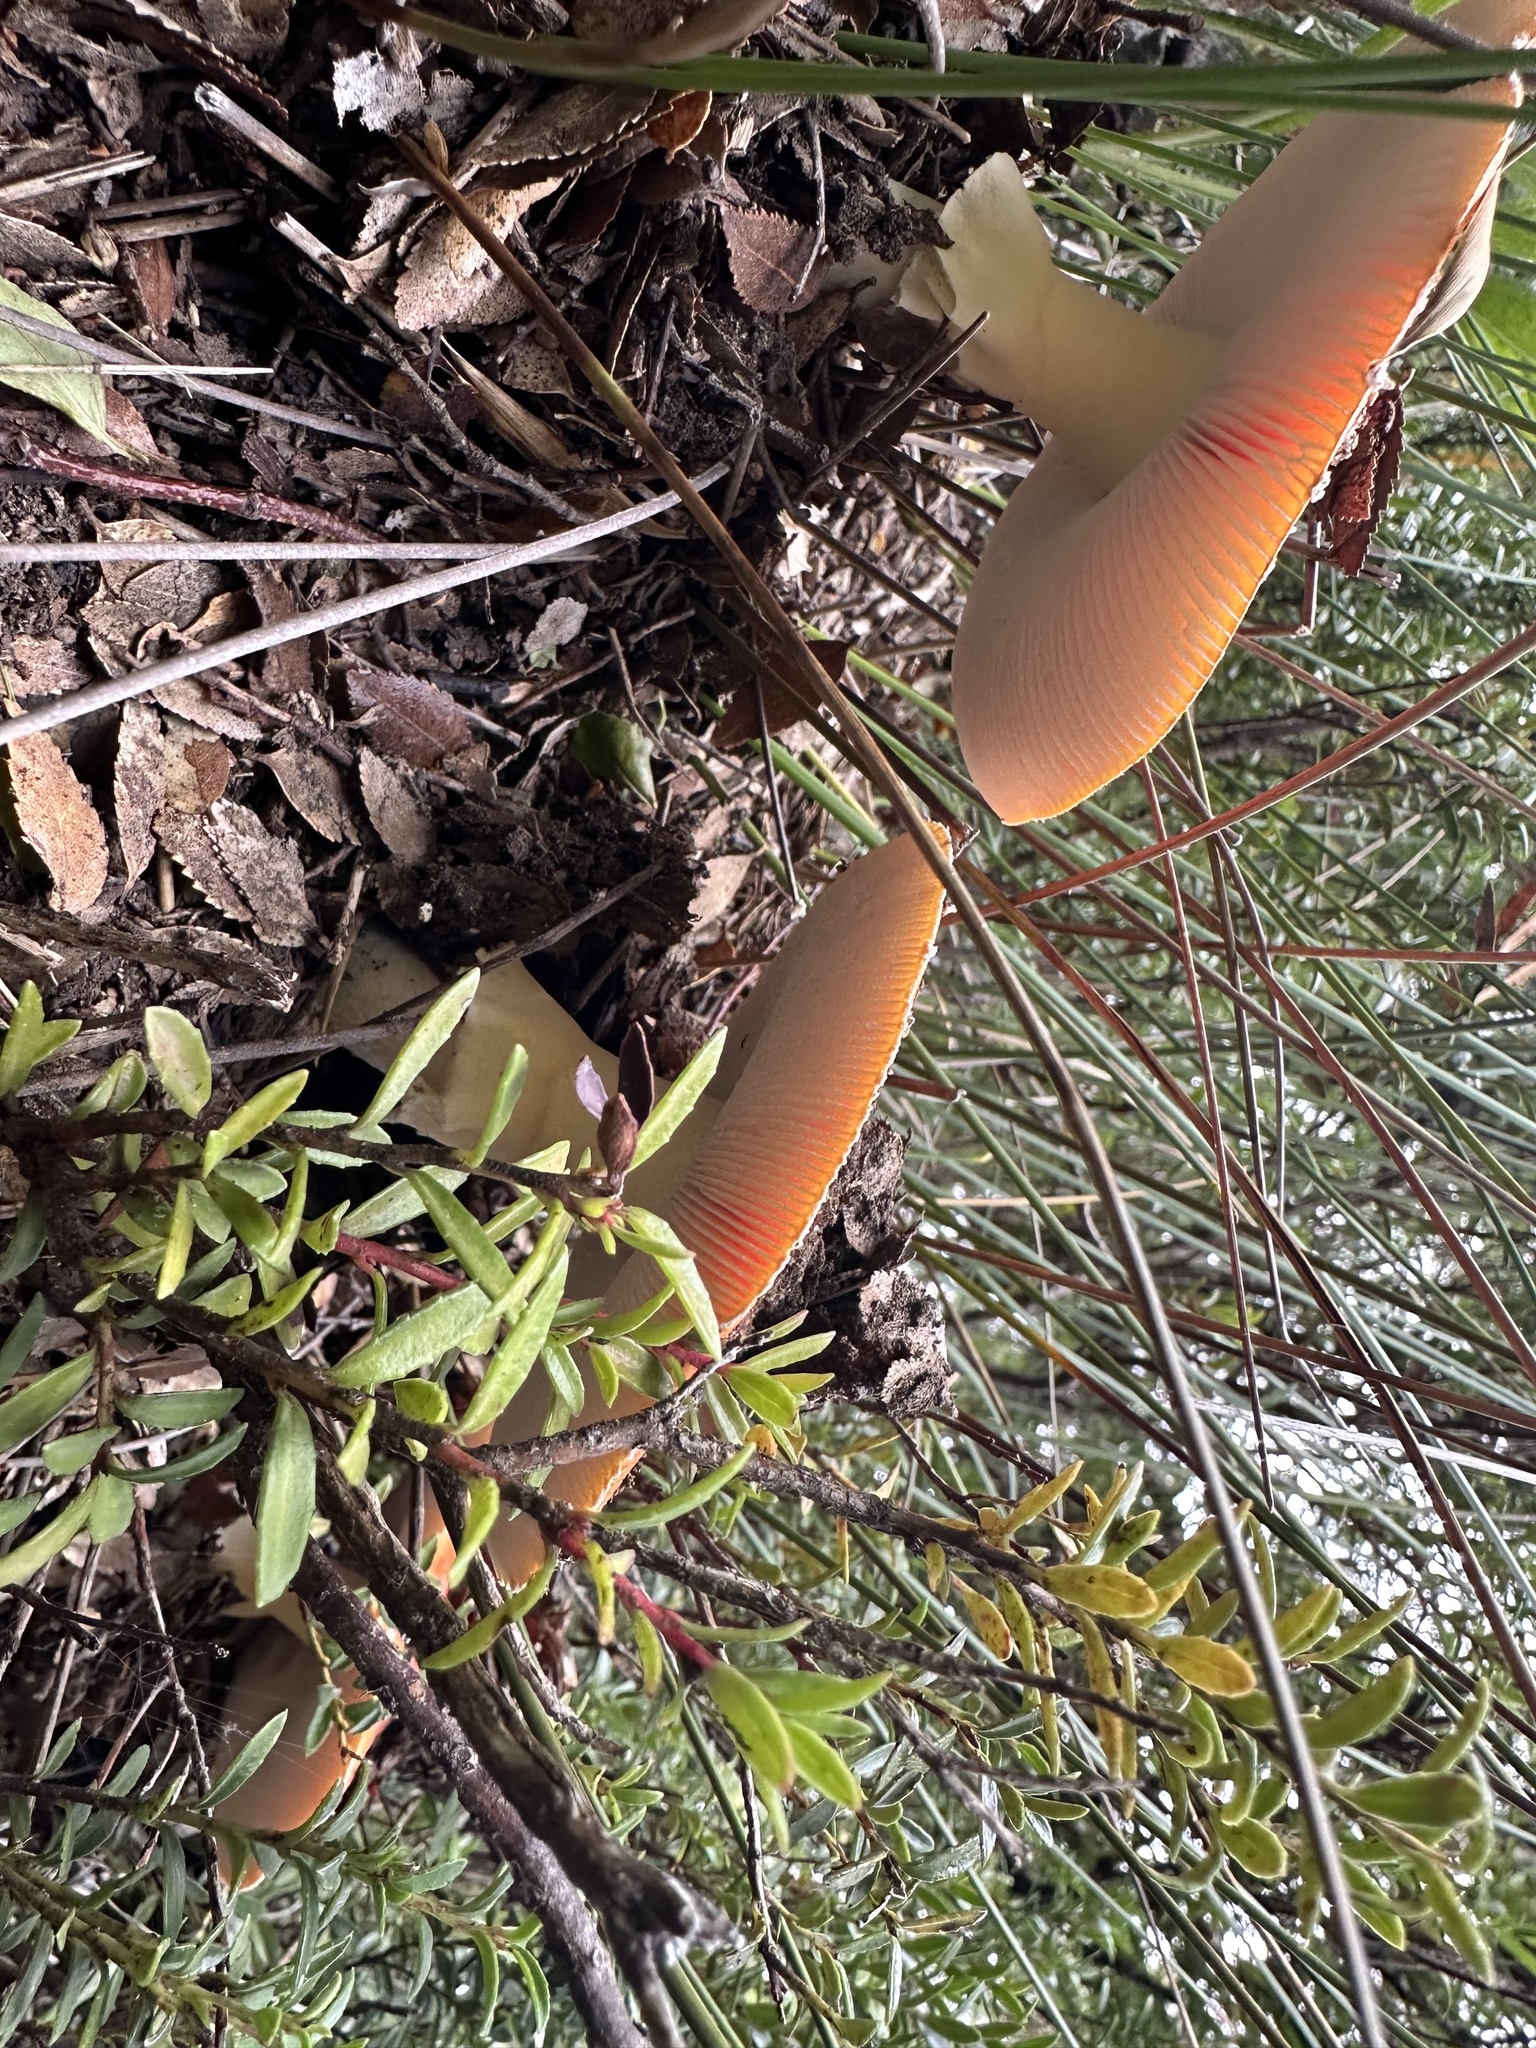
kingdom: Fungi
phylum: Basidiomycota
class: Agaricomycetes
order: Agaricales
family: Amanitaceae
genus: Amanita
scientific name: Amanita muscaria
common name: Fly agaric
